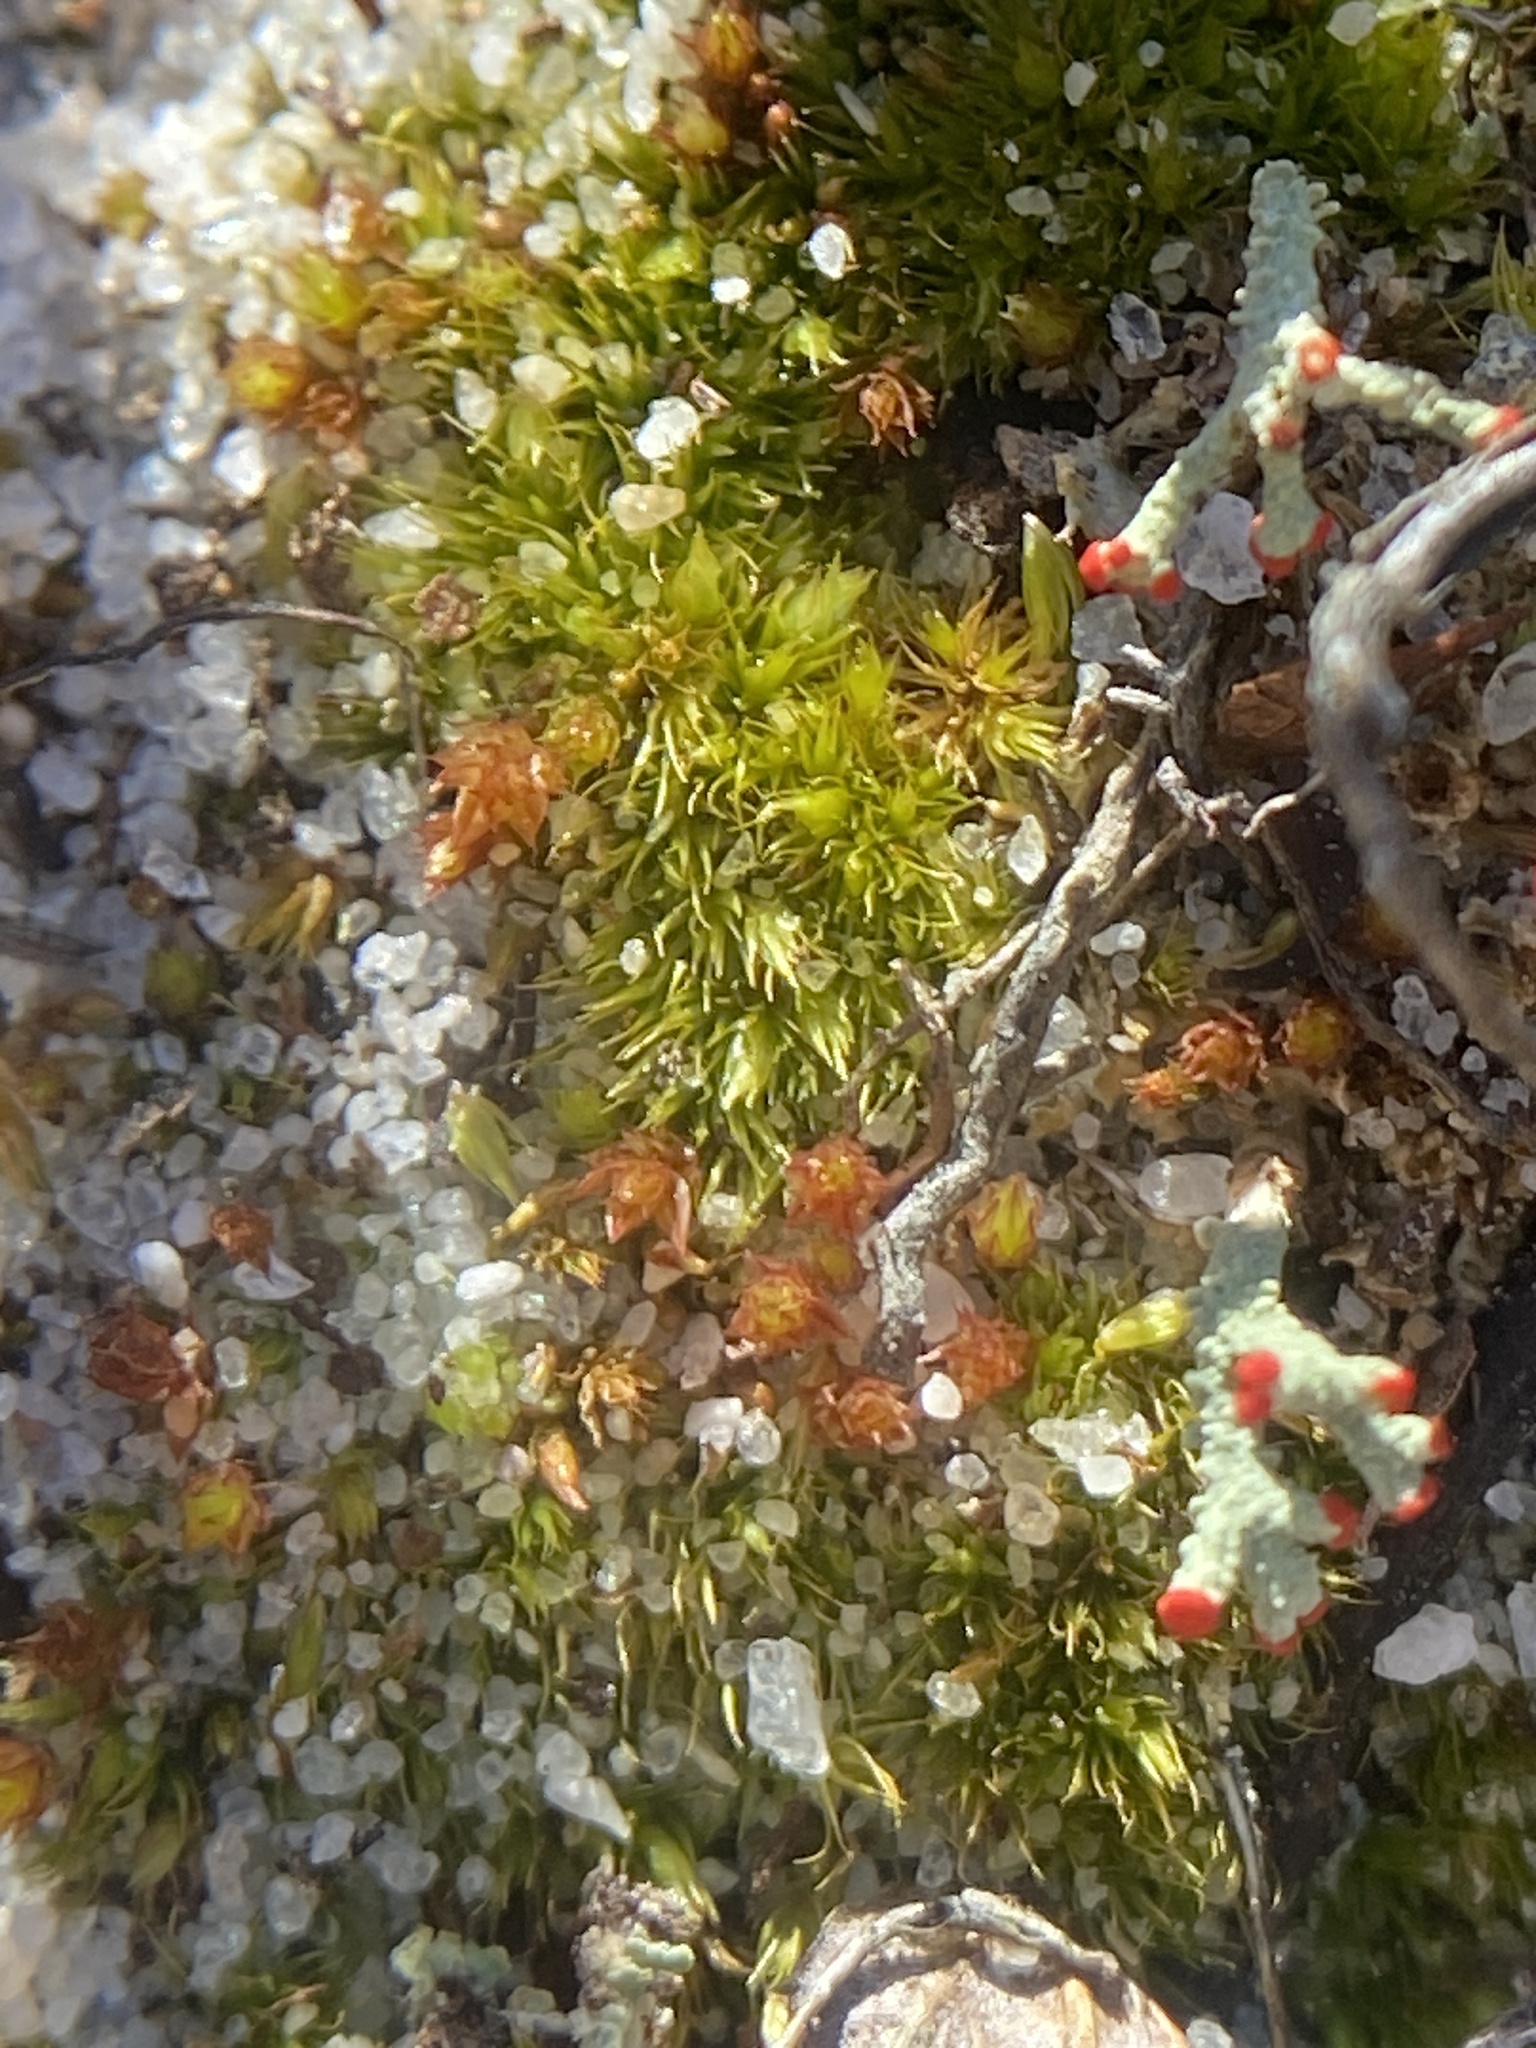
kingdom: Fungi
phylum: Ascomycota
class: Lecanoromycetes
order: Lecanorales
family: Cladoniaceae
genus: Cladonia
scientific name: Cladonia cristatella
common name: British soldier lichen
